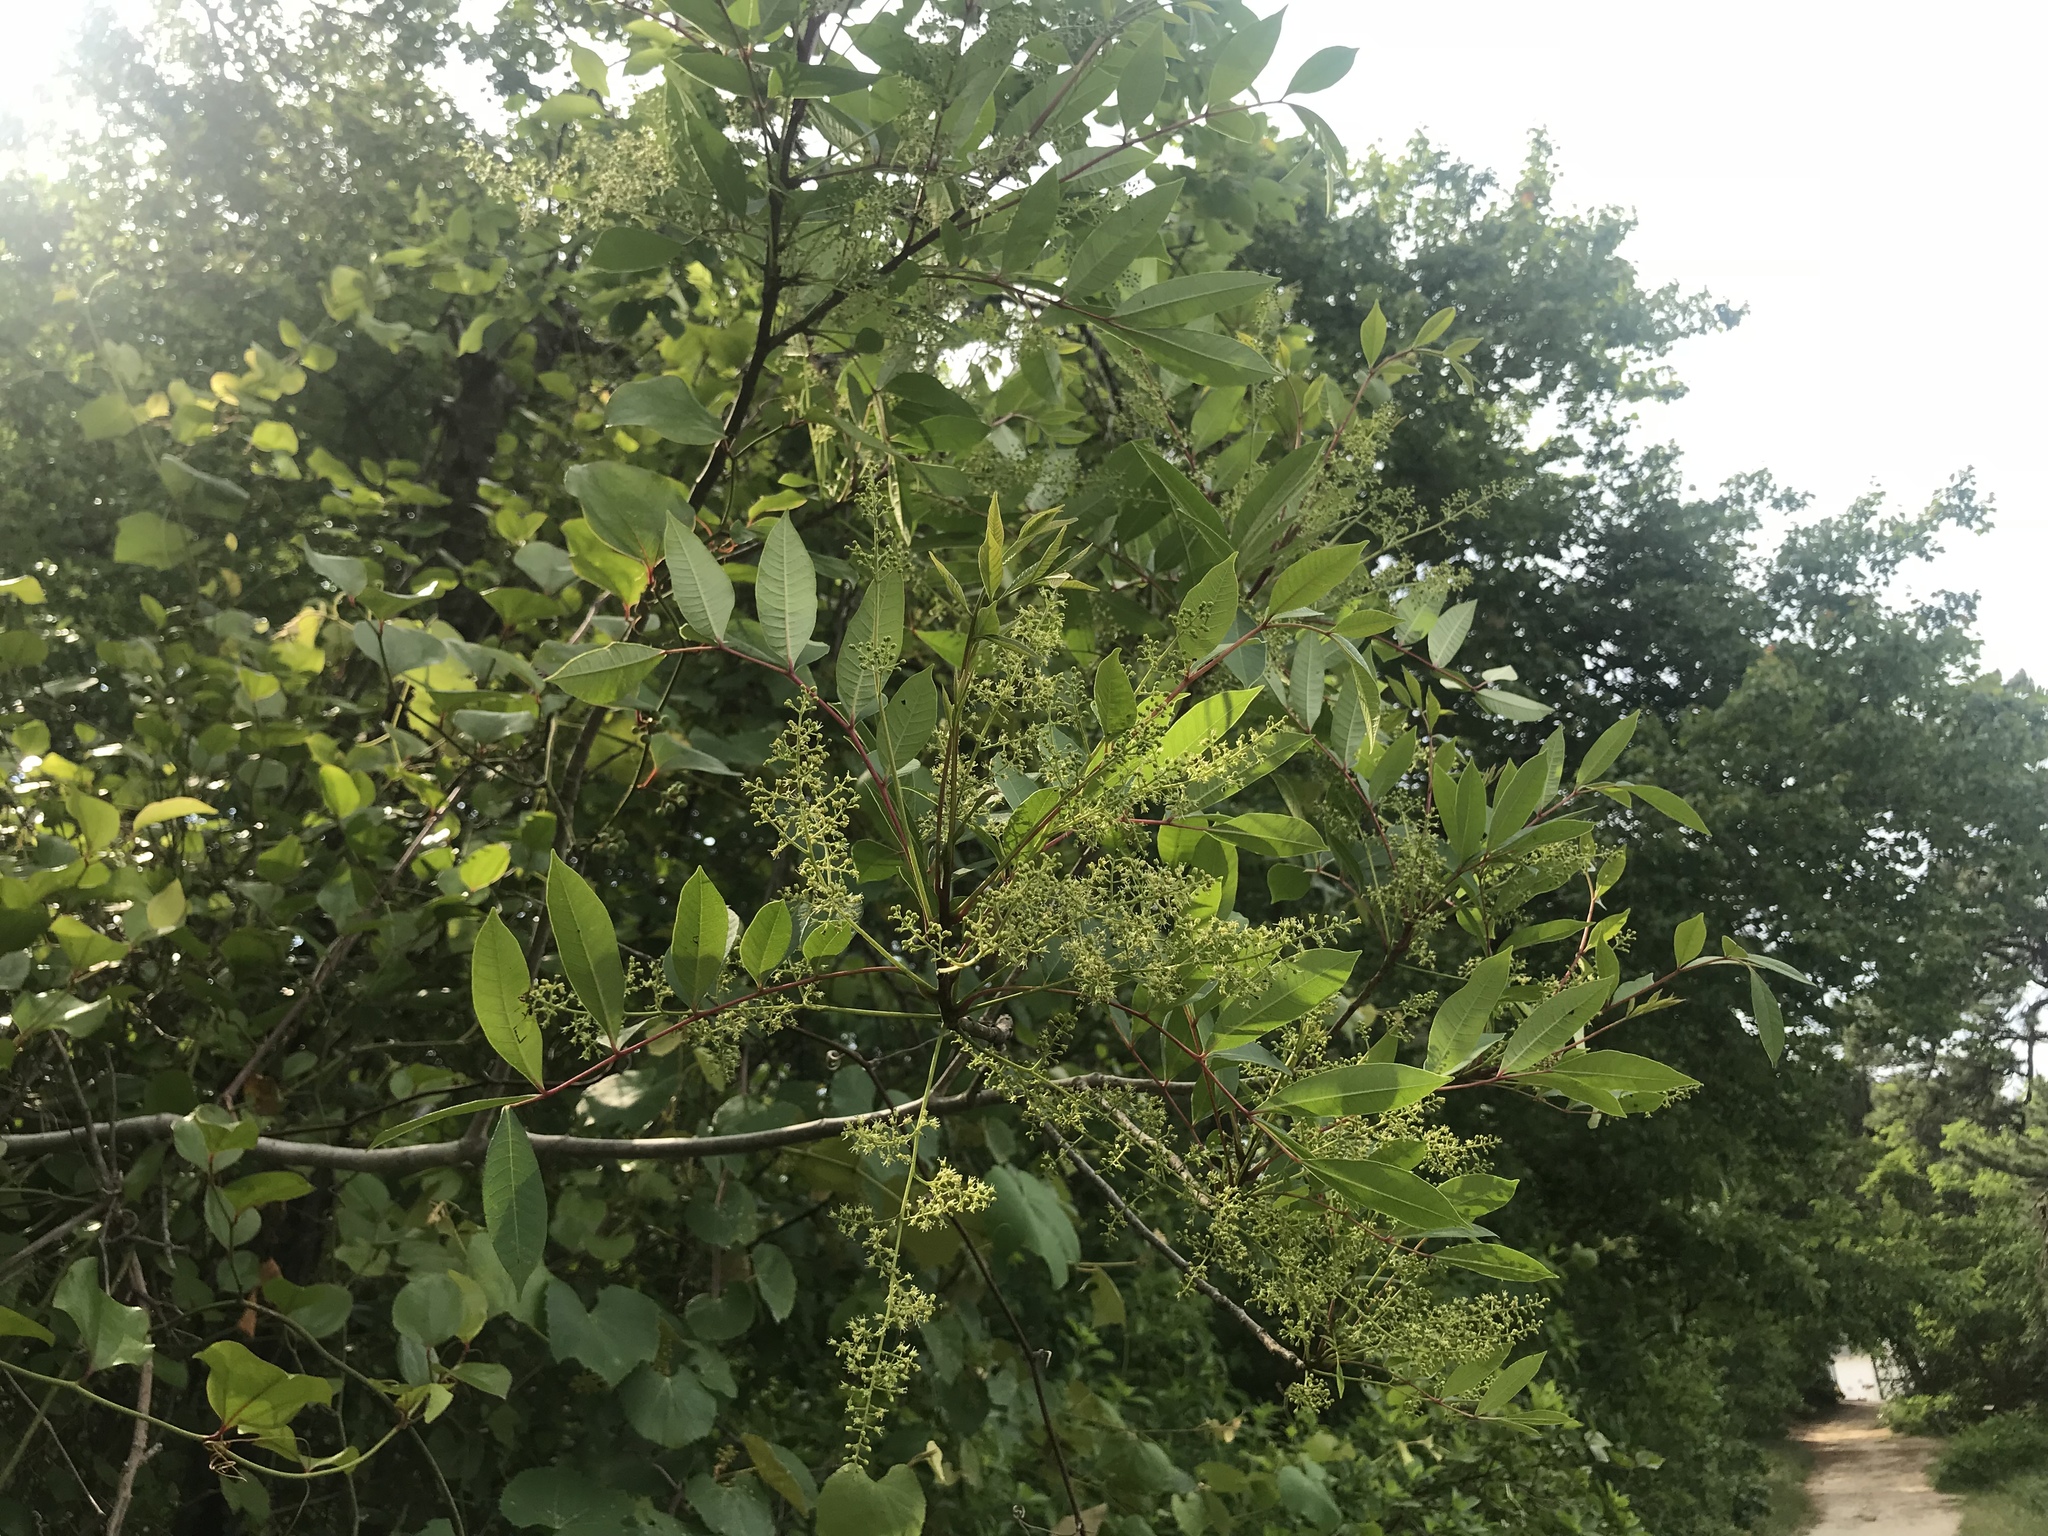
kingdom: Plantae
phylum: Tracheophyta
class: Magnoliopsida
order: Sapindales
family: Anacardiaceae
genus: Toxicodendron
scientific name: Toxicodendron vernix
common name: Poison sumac
